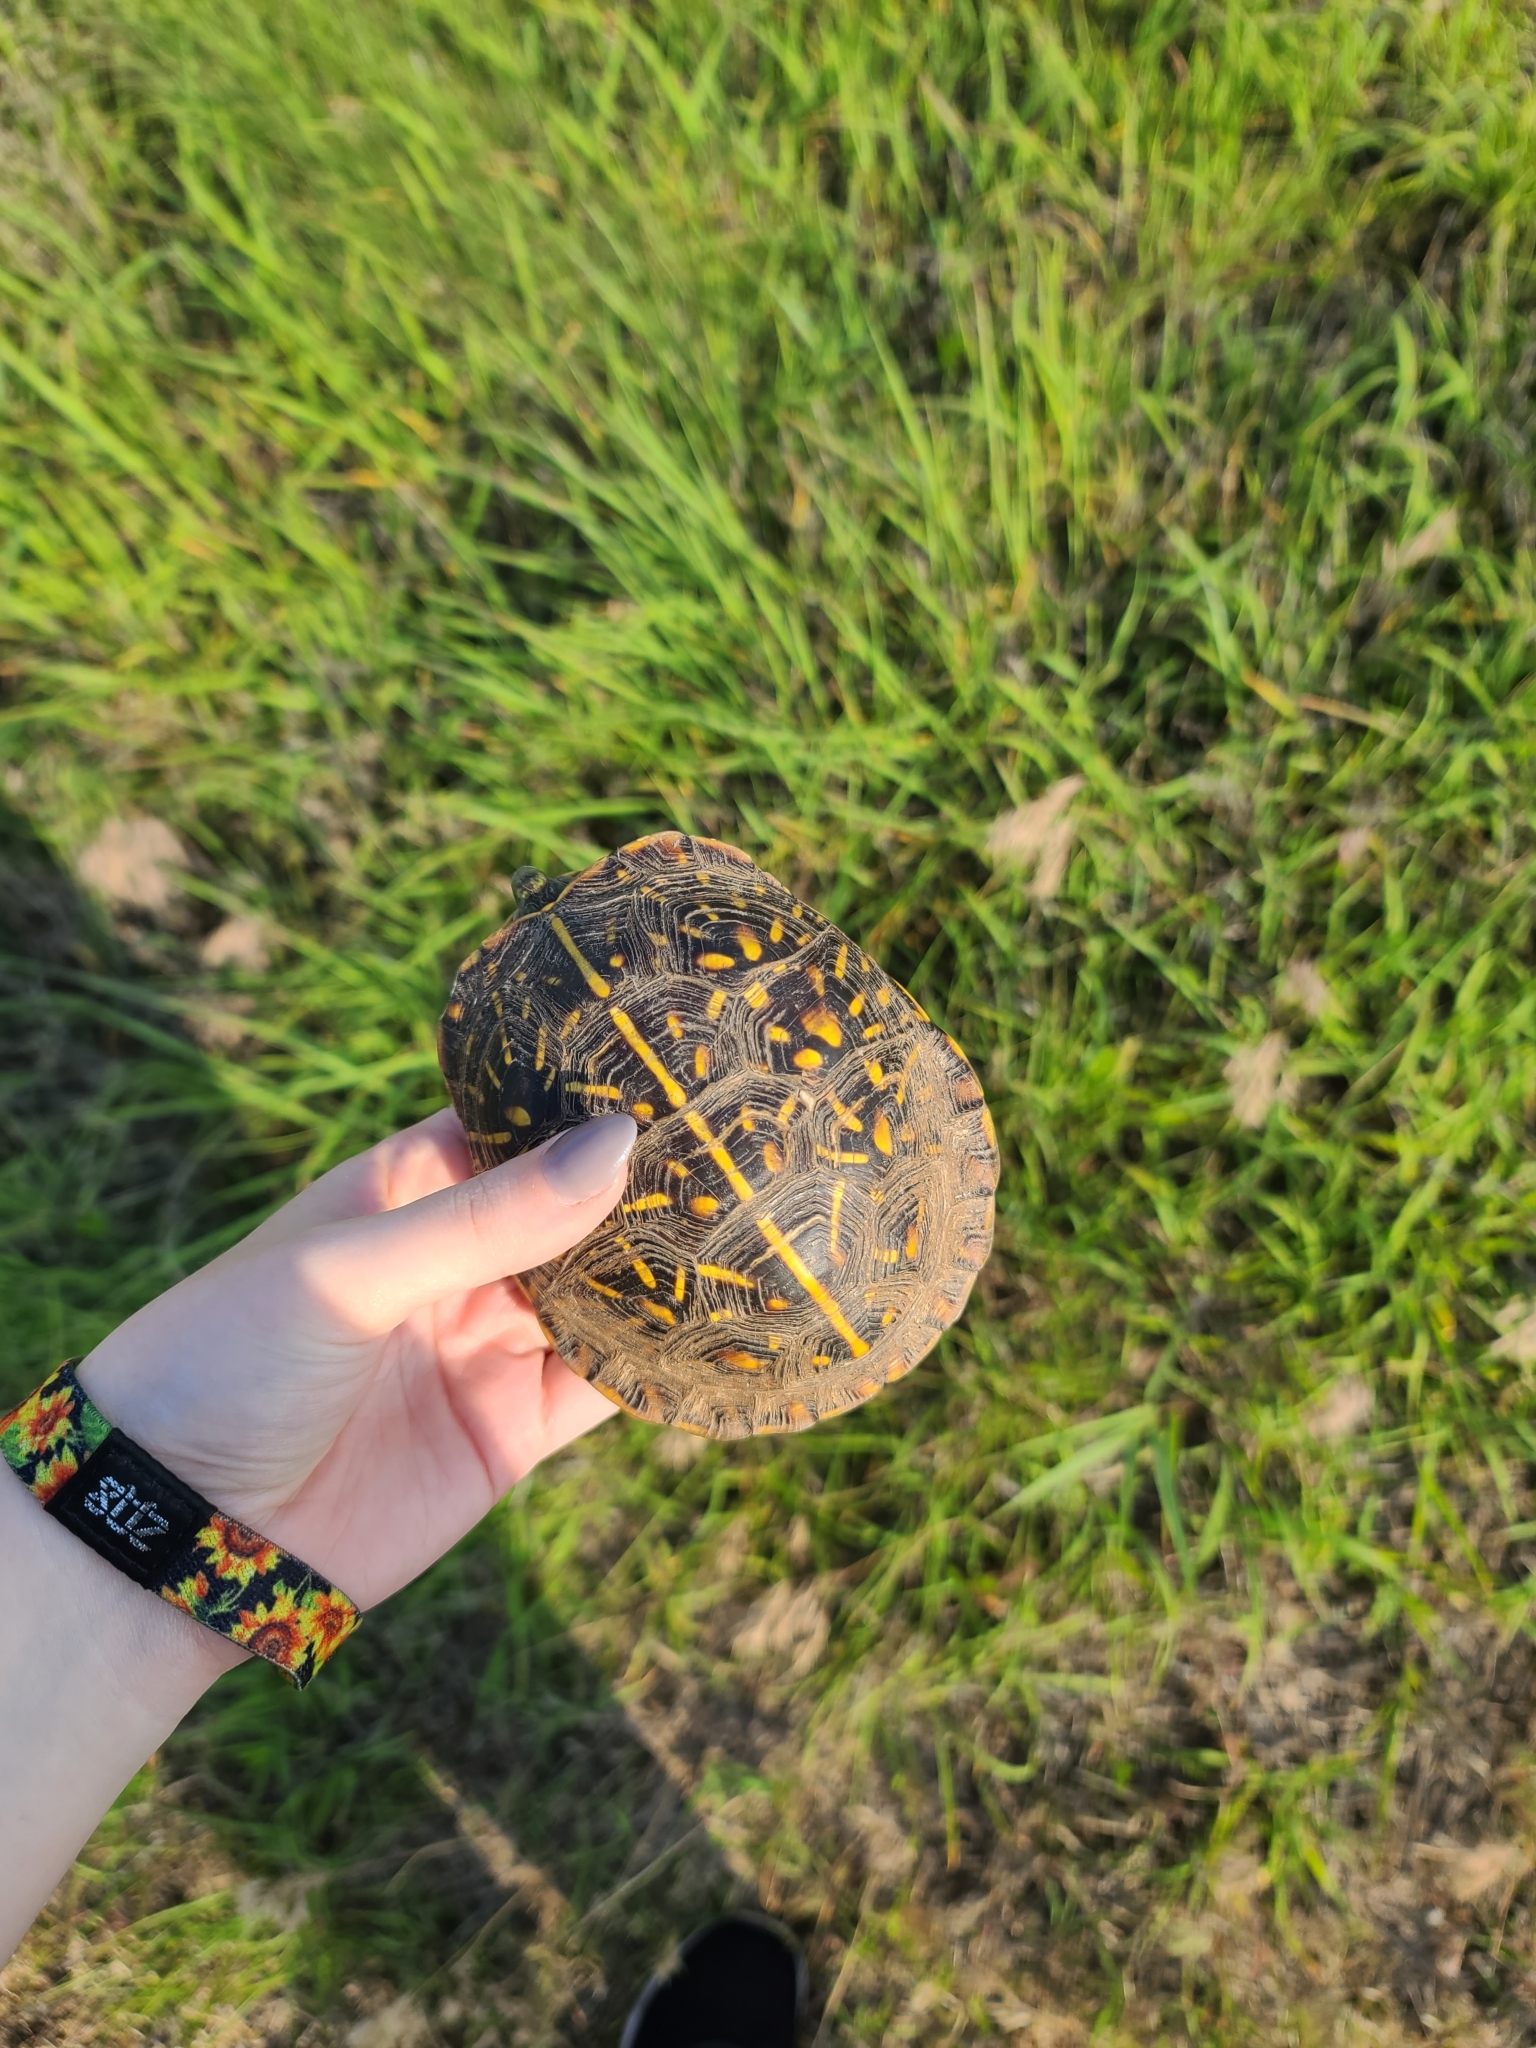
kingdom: Animalia
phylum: Chordata
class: Testudines
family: Emydidae
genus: Terrapene
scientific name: Terrapene ornata
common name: Western box turtle
